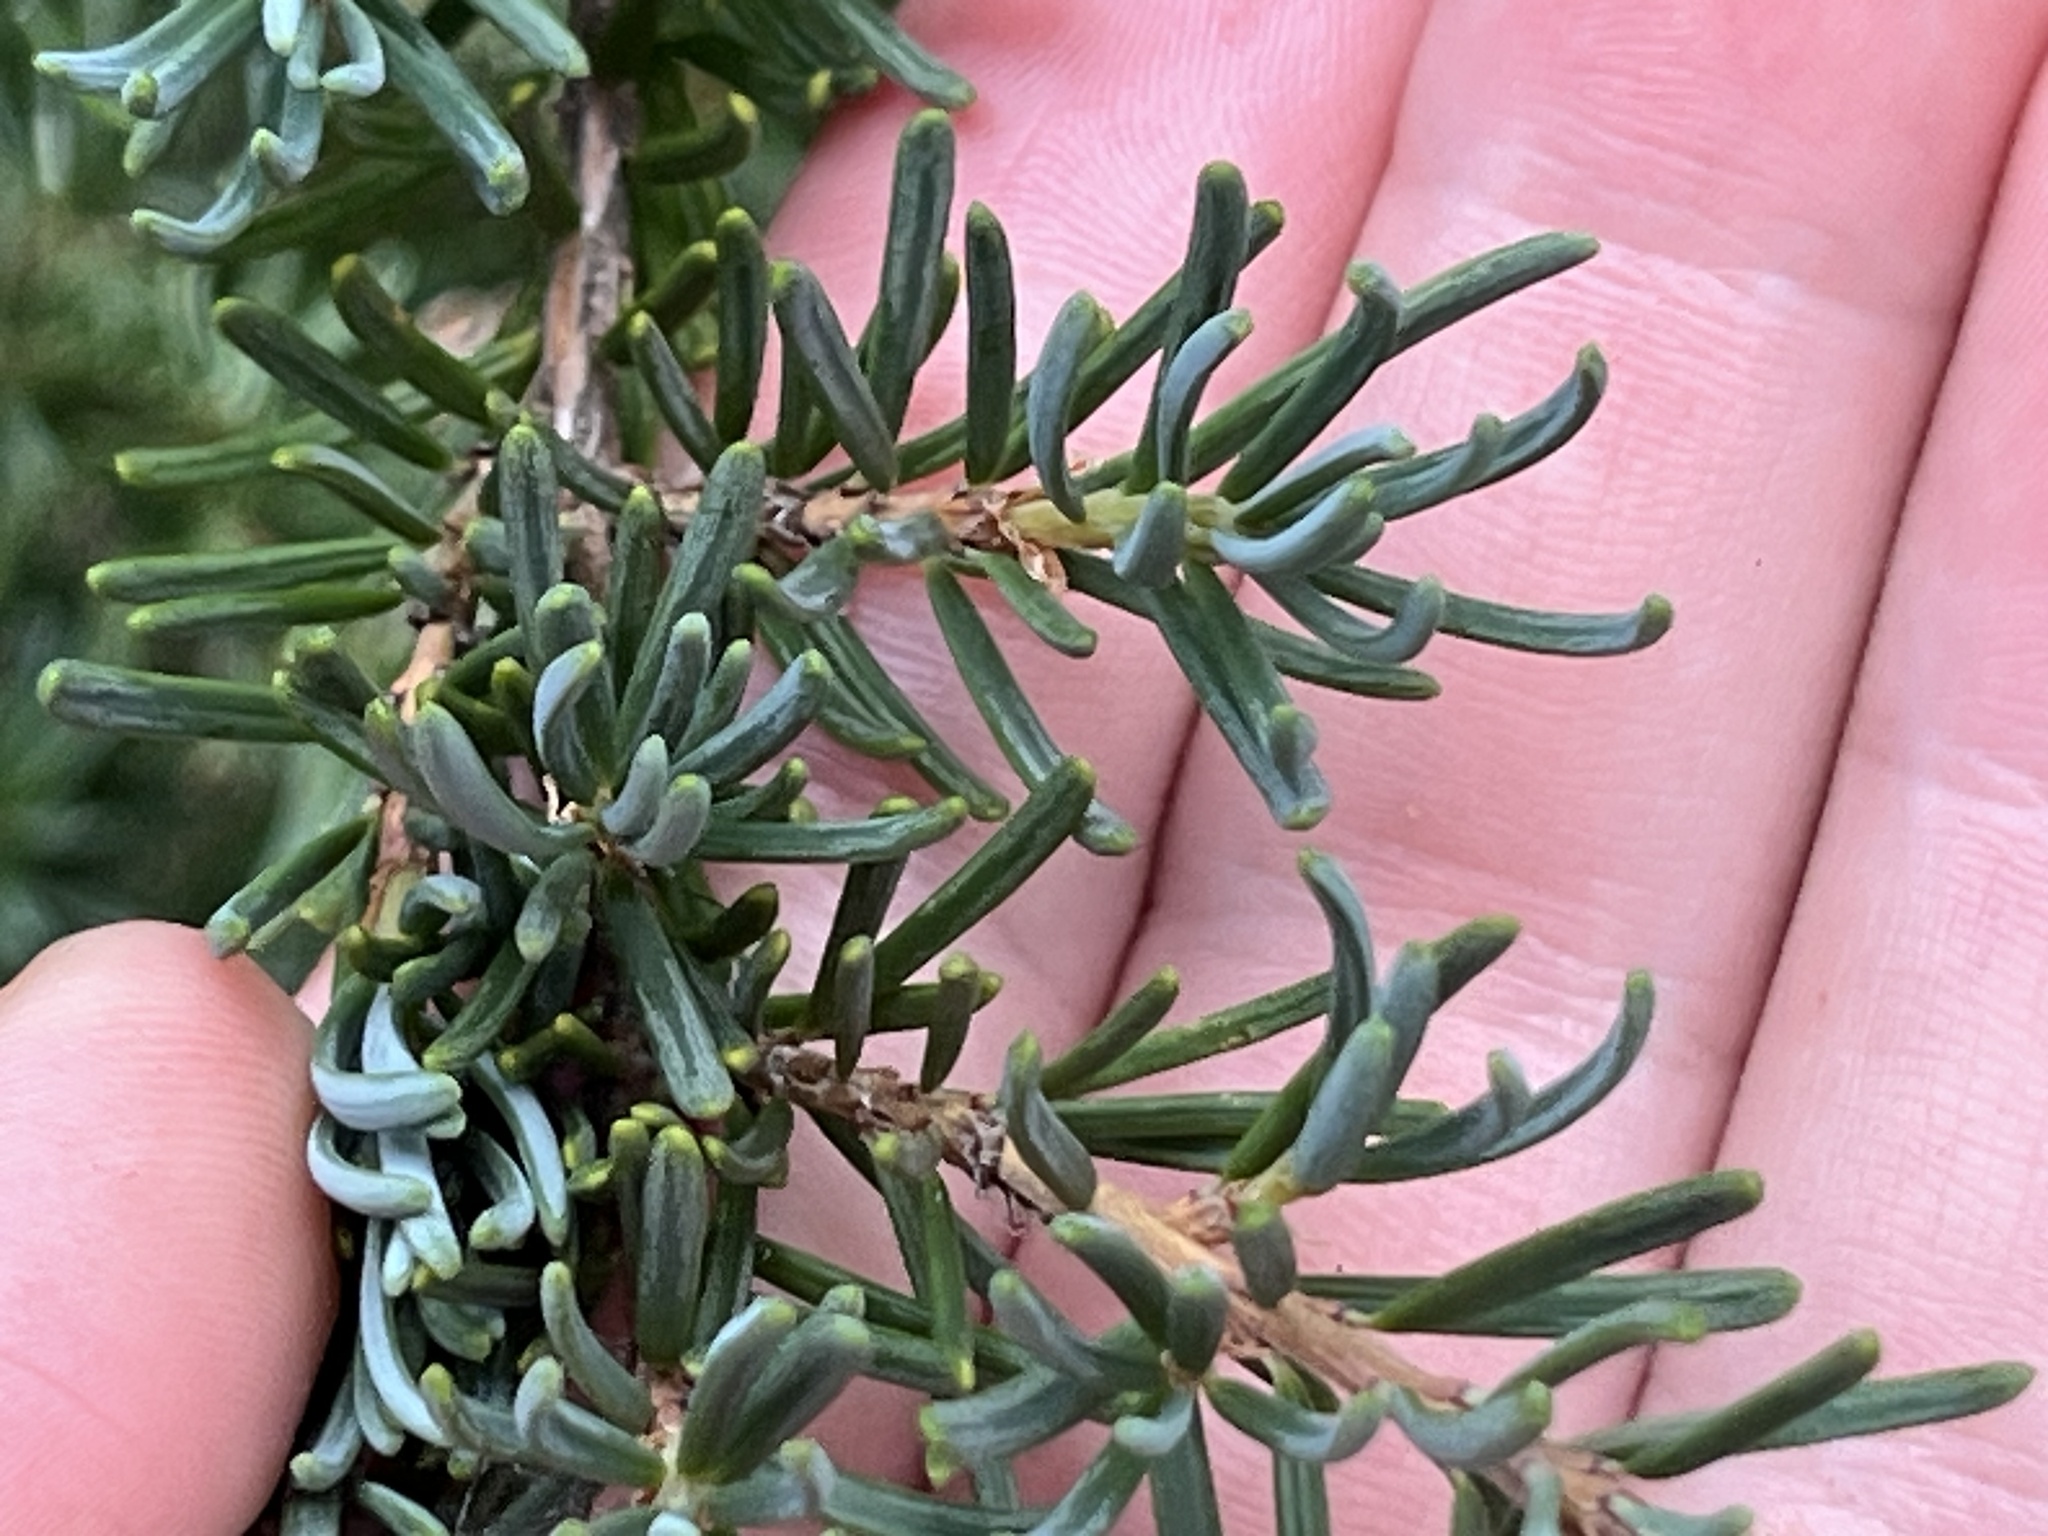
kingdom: Plantae
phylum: Tracheophyta
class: Pinopsida
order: Pinales
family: Pinaceae
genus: Tsuga
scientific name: Tsuga mertensiana
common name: Mountain hemlock
